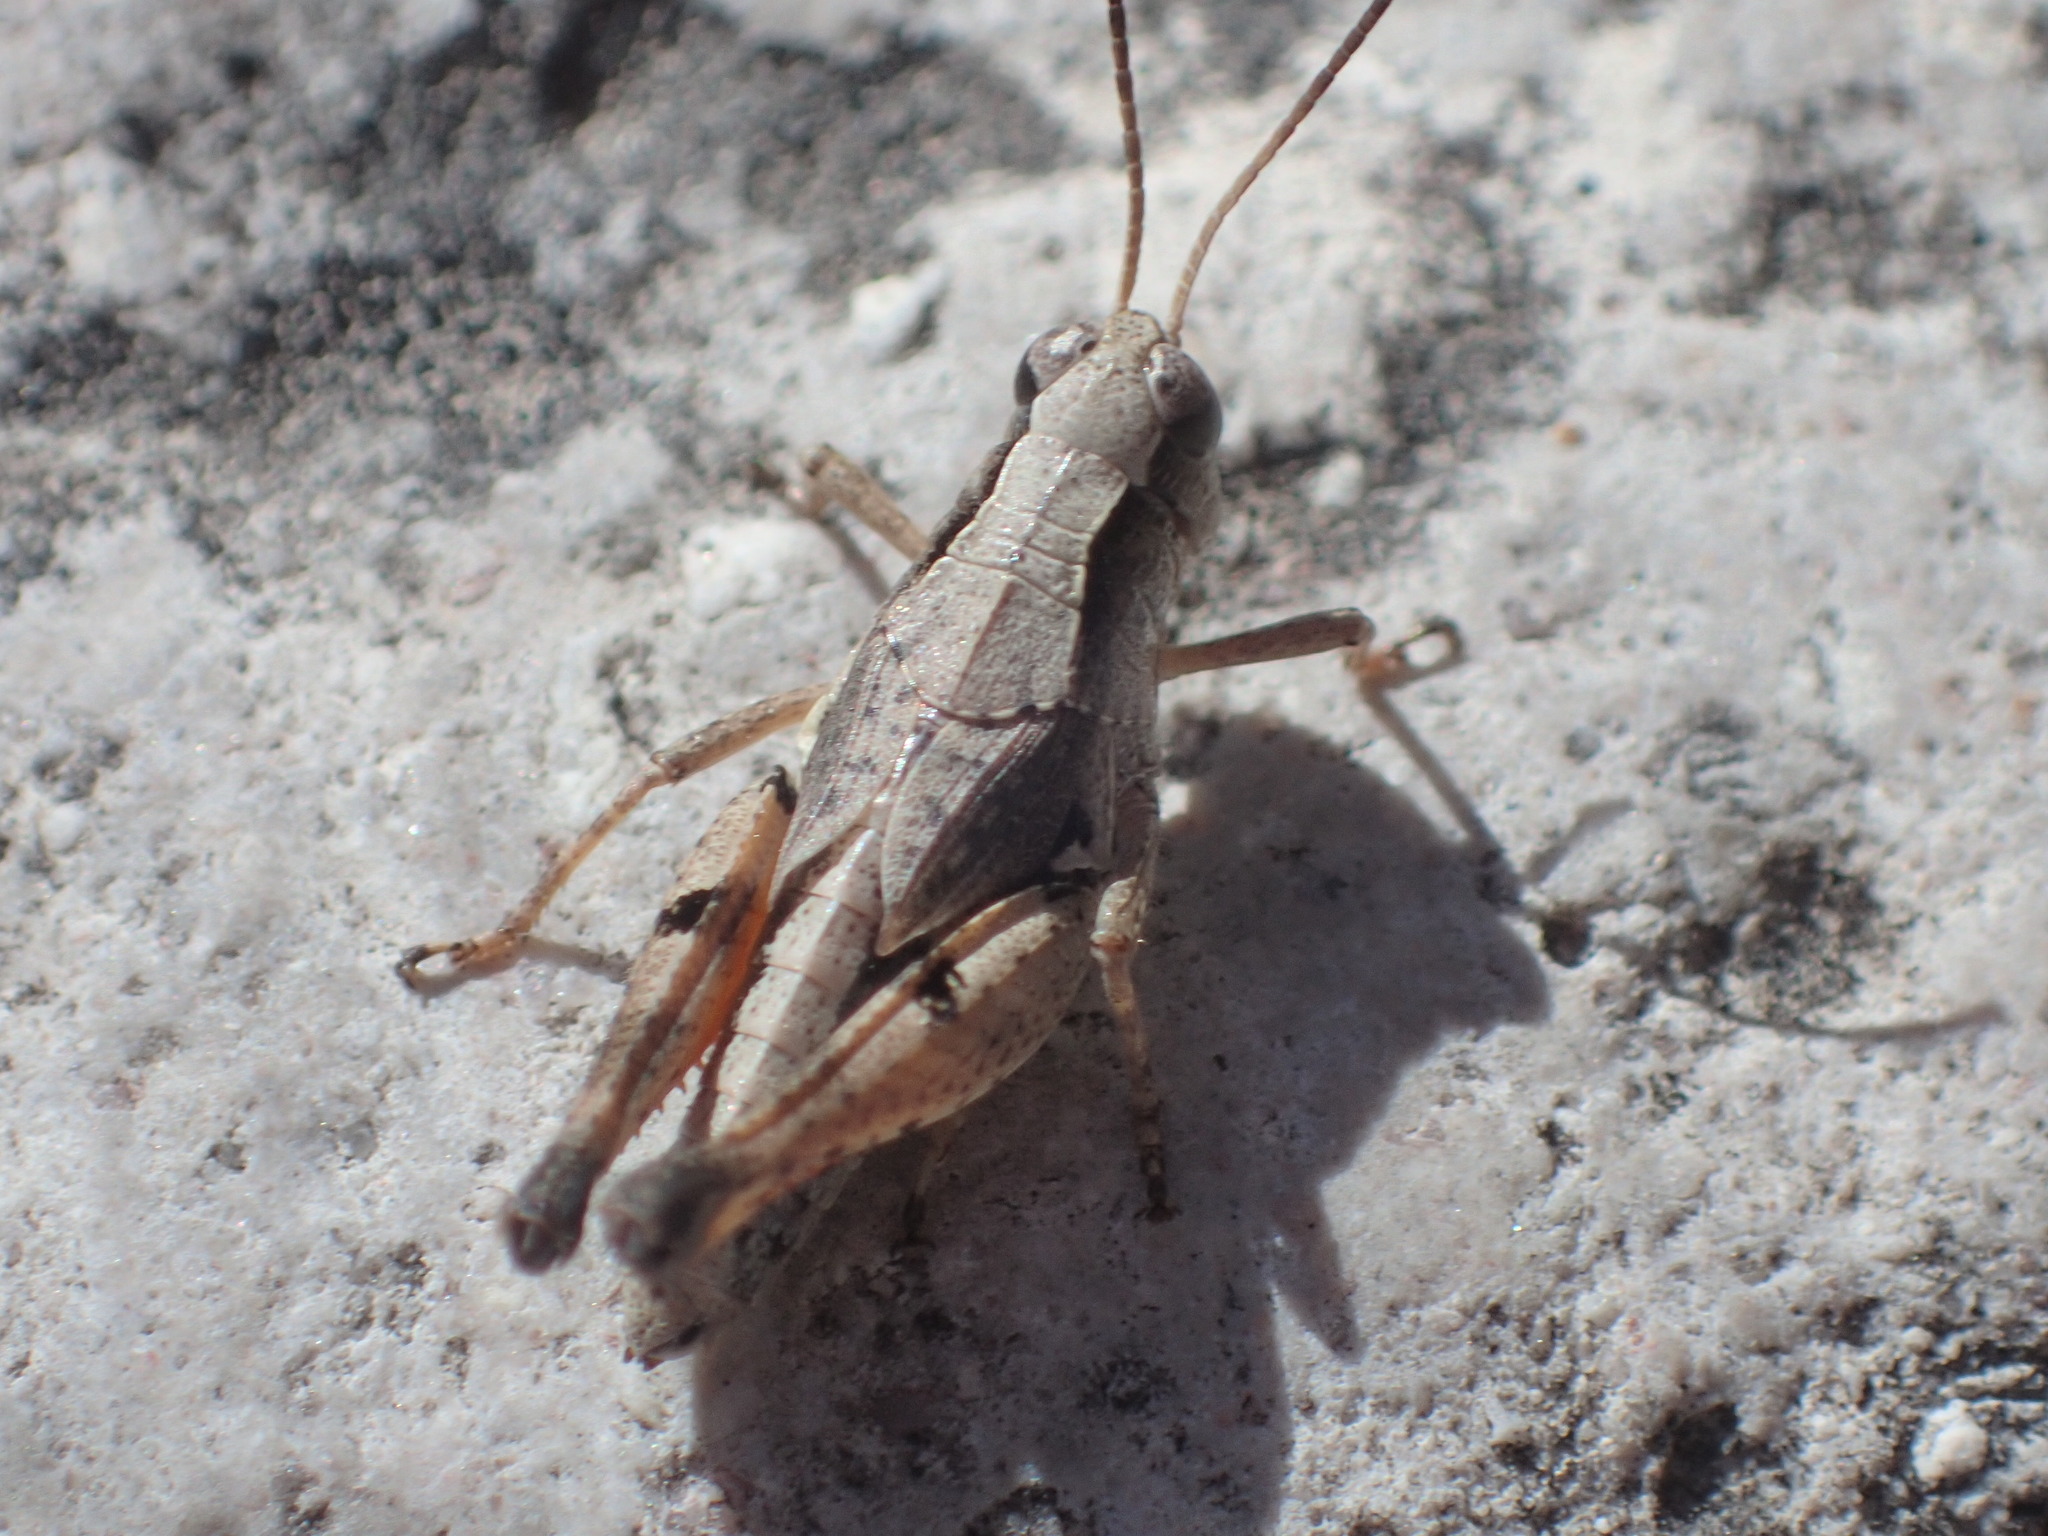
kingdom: Animalia
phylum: Arthropoda
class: Insecta
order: Orthoptera
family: Acrididae
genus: Phaulacridium
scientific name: Phaulacridium vittatum
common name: Wingless grasshopper
